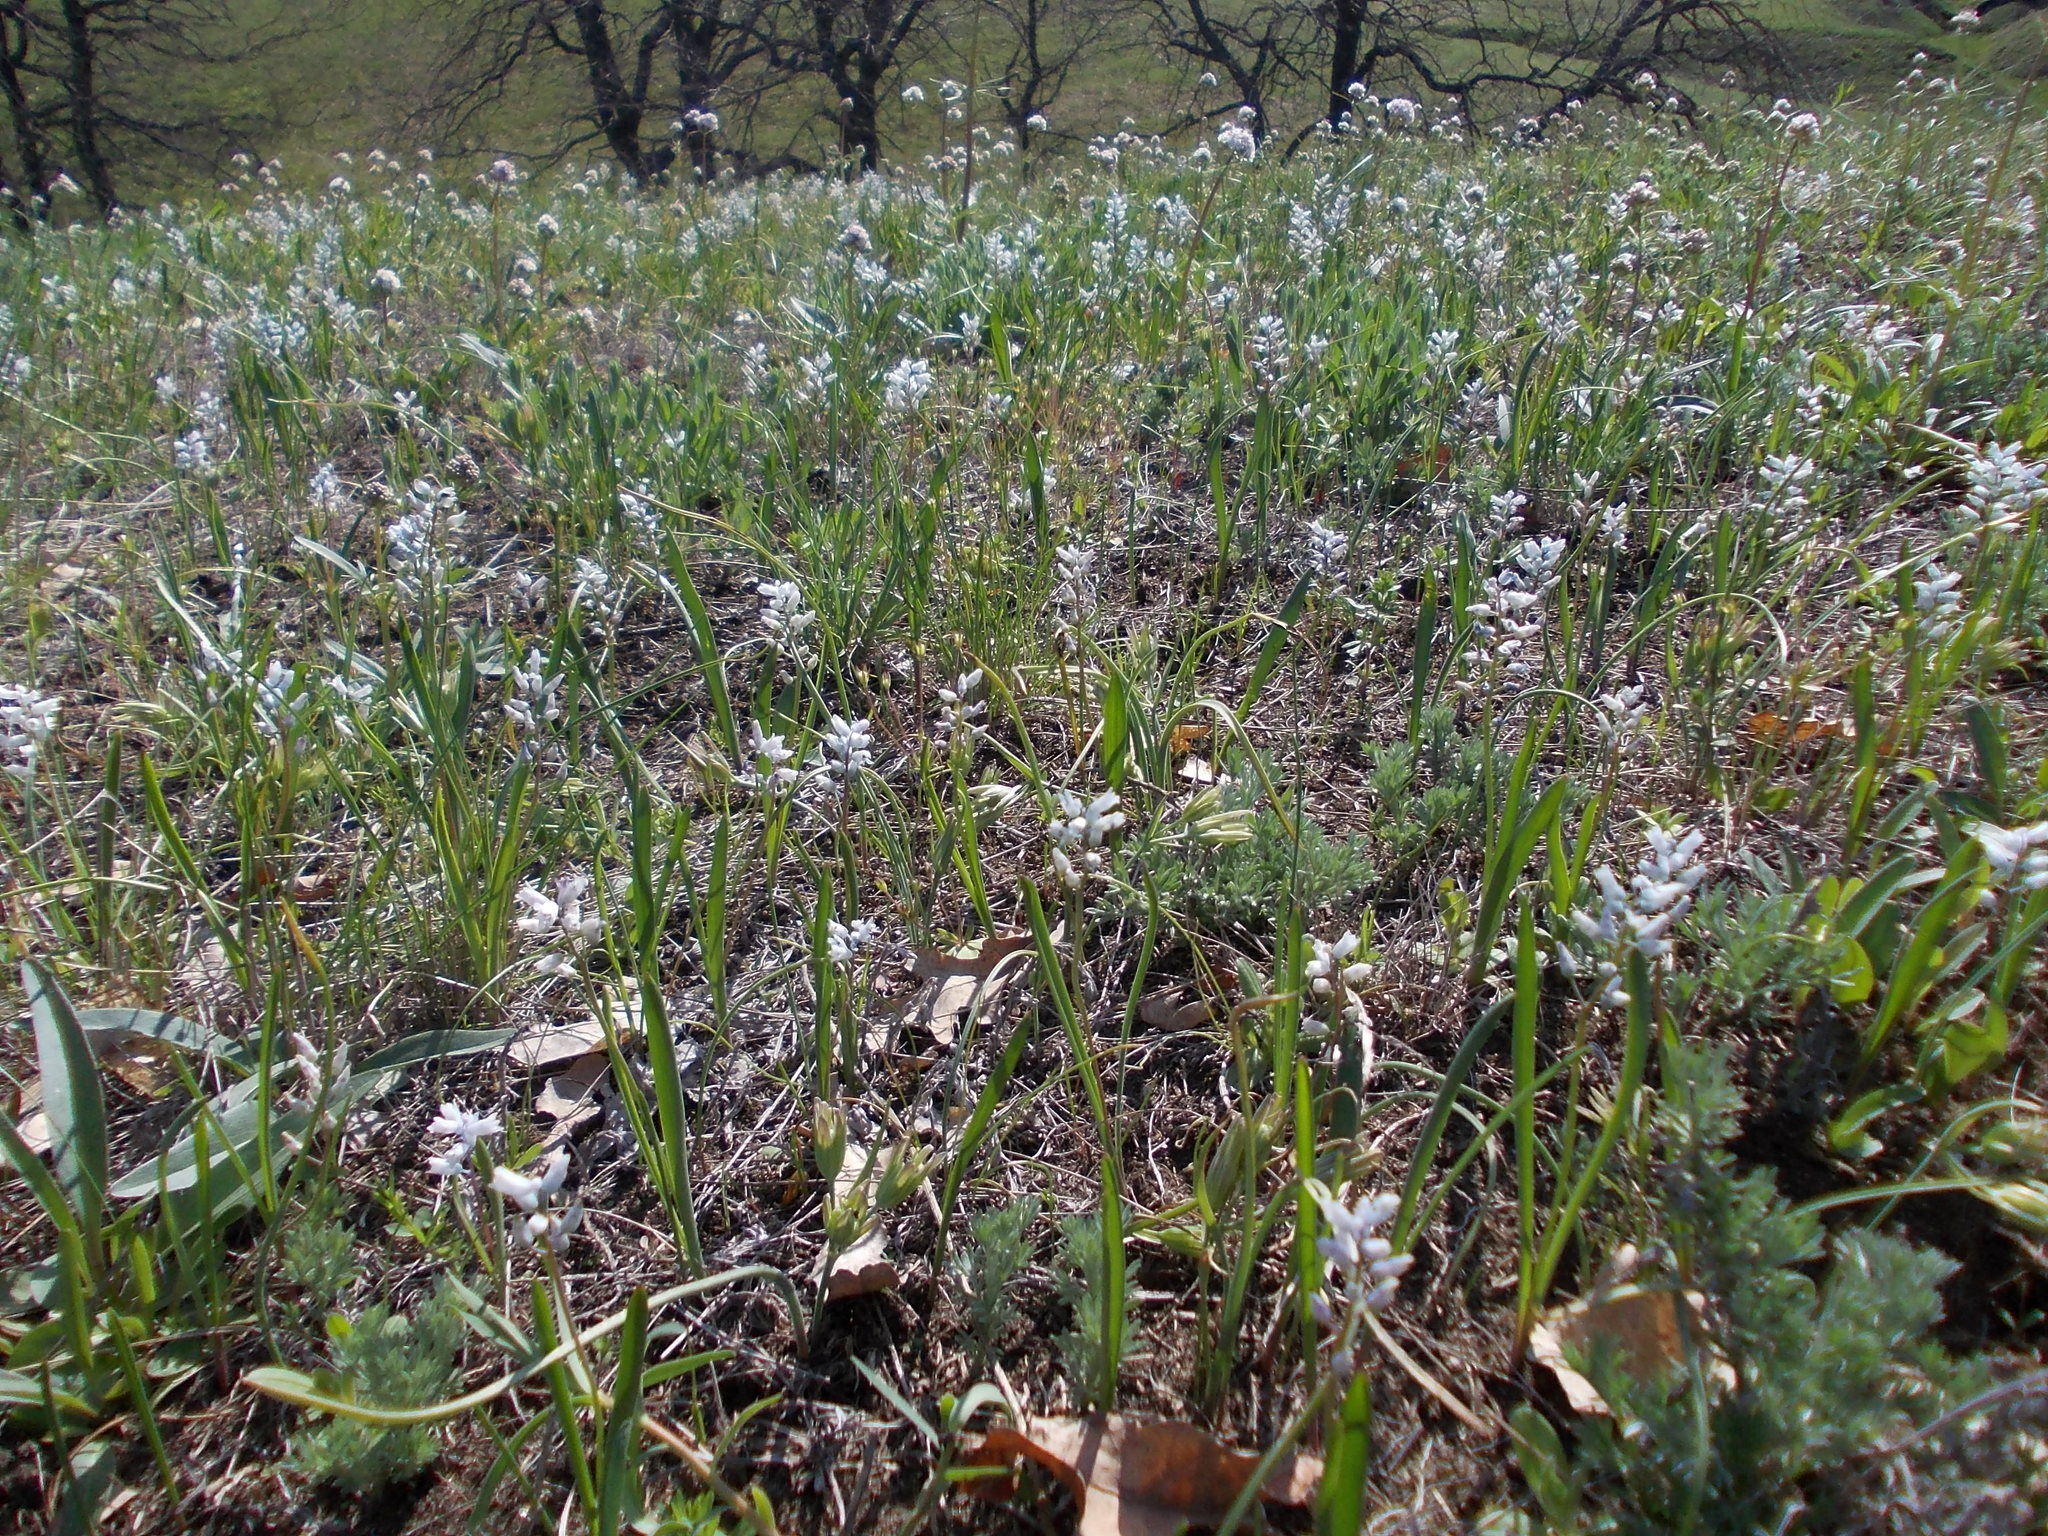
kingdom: Plantae
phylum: Tracheophyta
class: Liliopsida
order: Asparagales
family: Asparagaceae
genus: Hyacinthella
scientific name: Hyacinthella leucophaea
